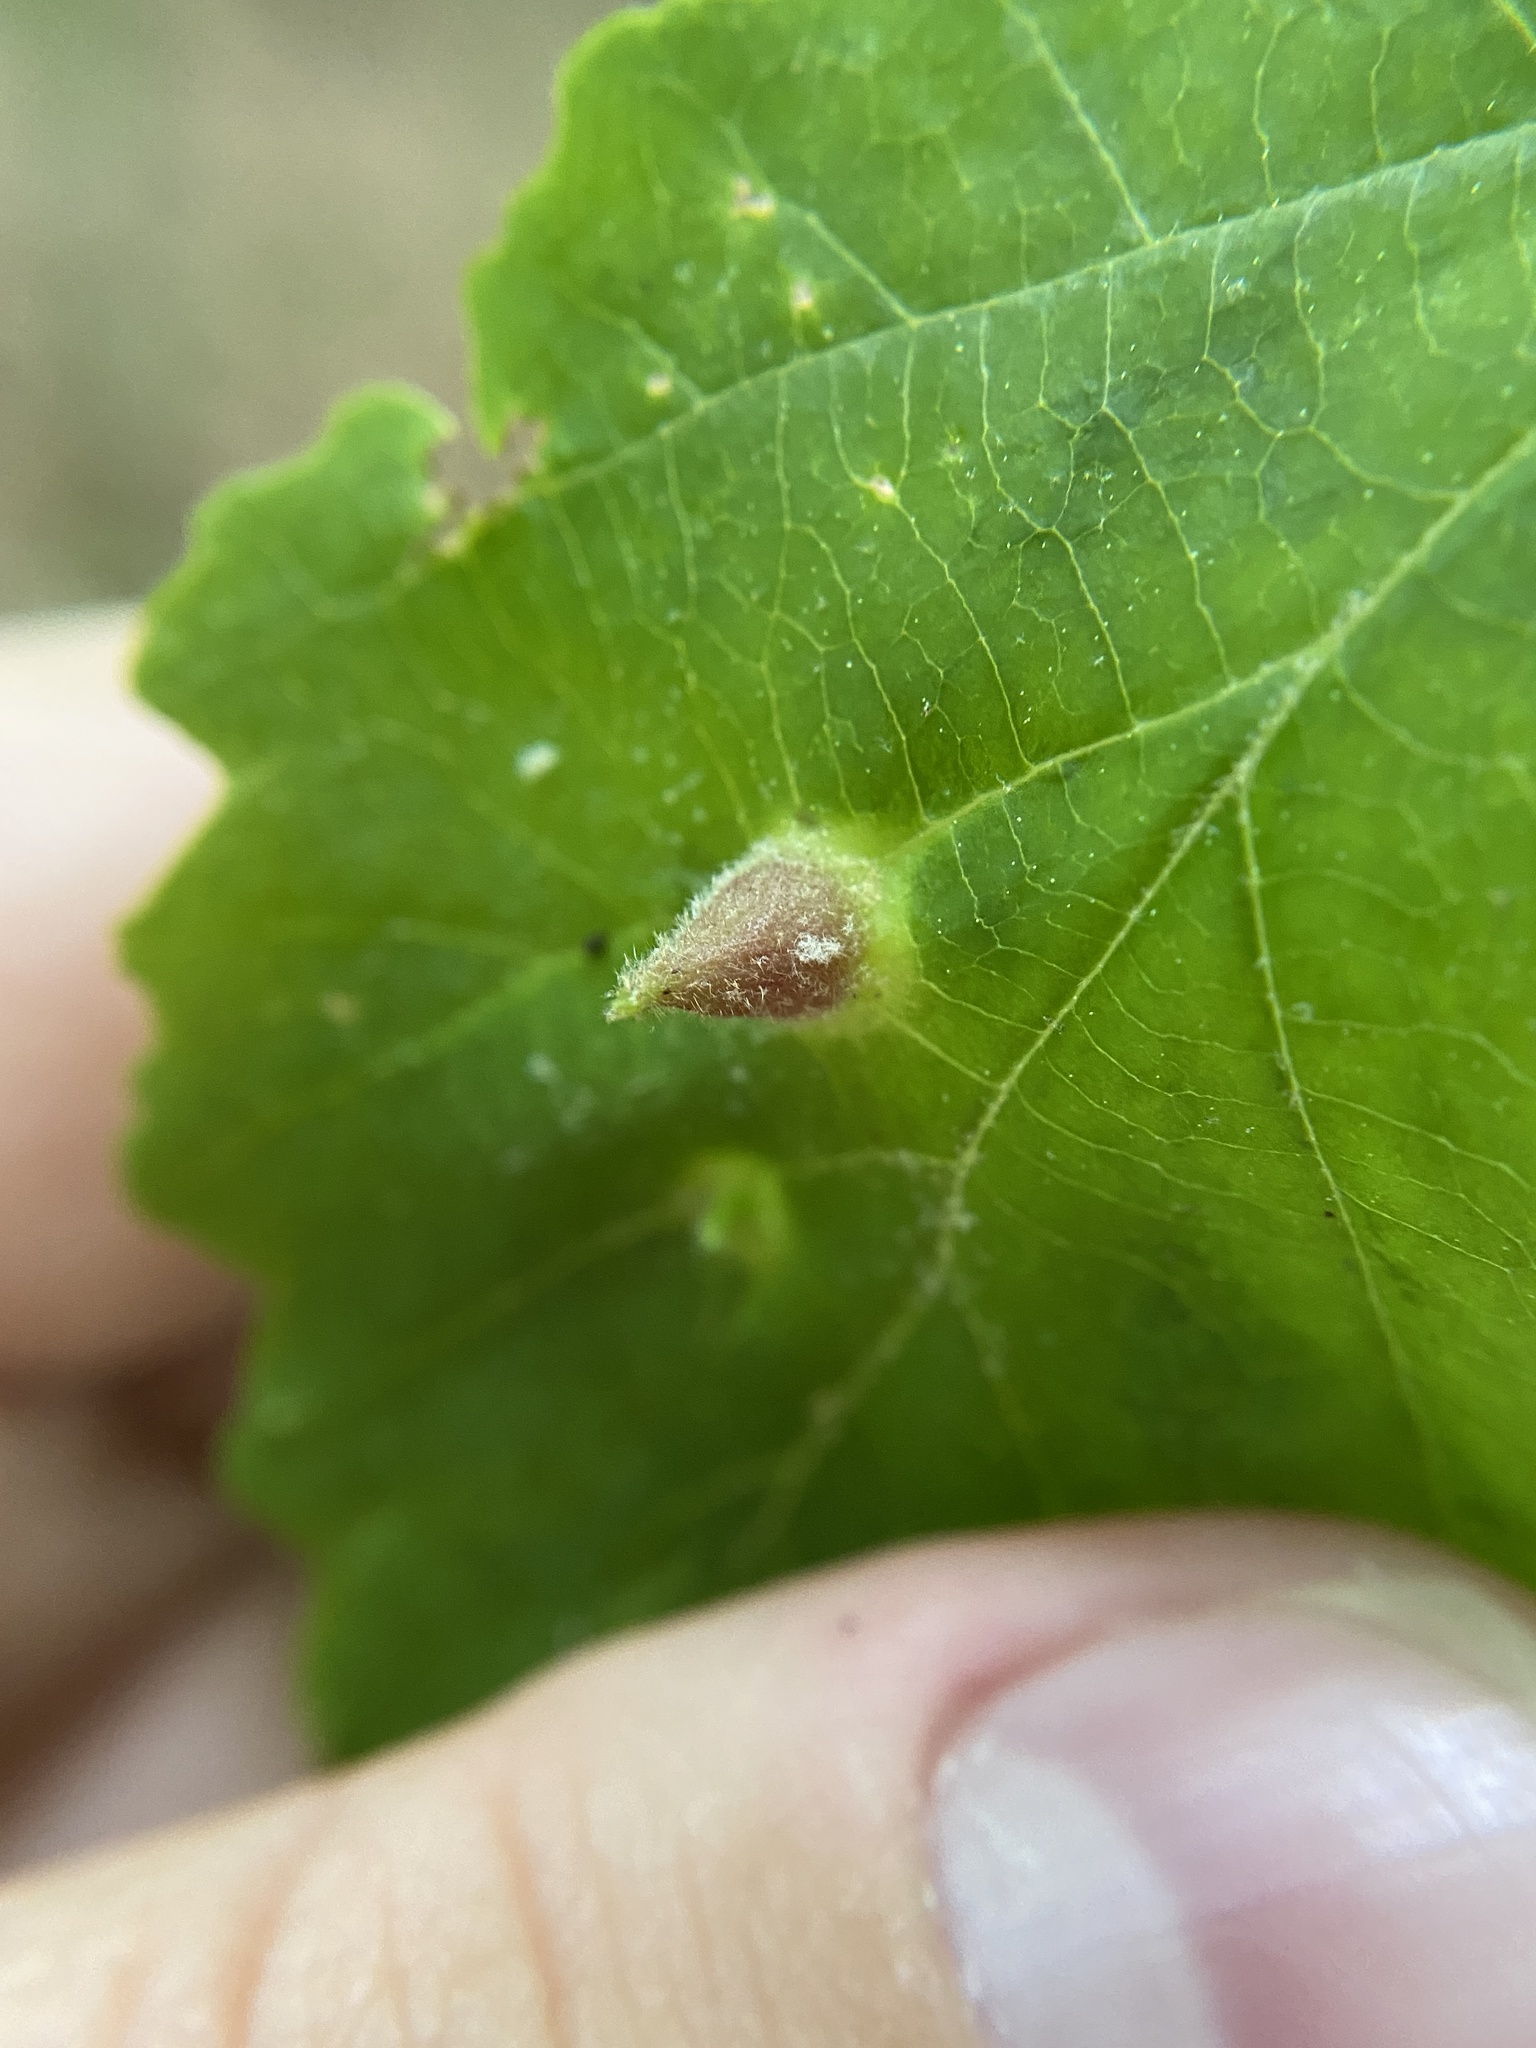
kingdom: Animalia
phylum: Arthropoda
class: Insecta
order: Hemiptera
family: Aphididae
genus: Hormaphis
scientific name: Hormaphis hamamelidis
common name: Witch-hazel cone gall aphid
